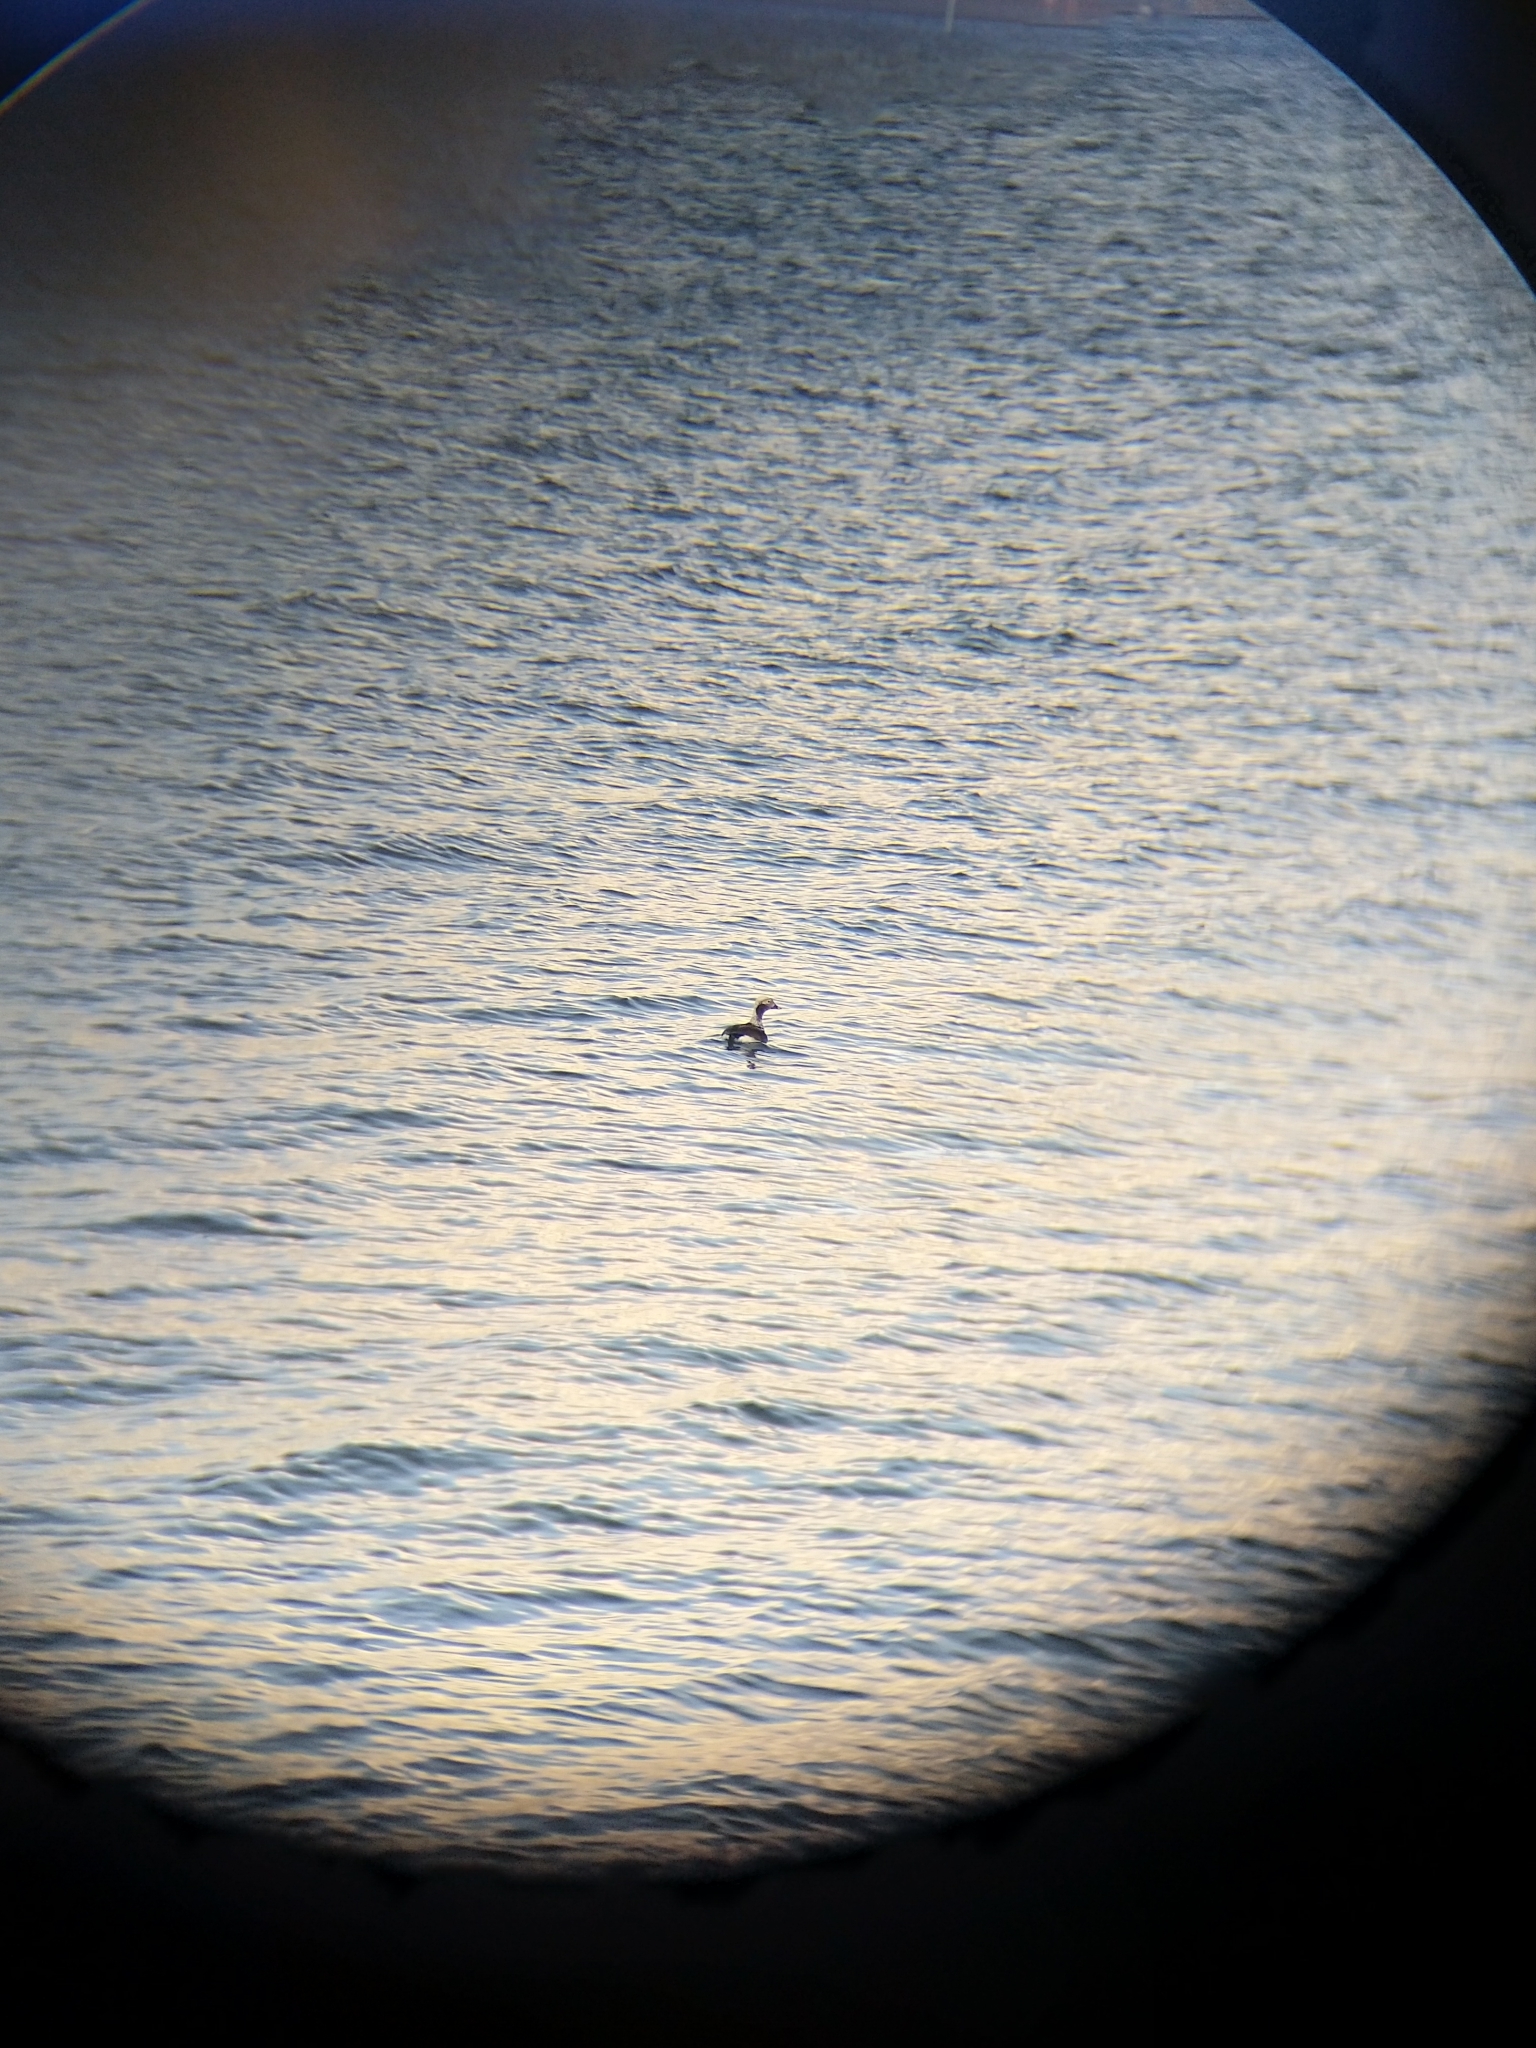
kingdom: Animalia
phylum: Chordata
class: Aves
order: Anseriformes
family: Anatidae
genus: Clangula
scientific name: Clangula hyemalis
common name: Long-tailed duck
